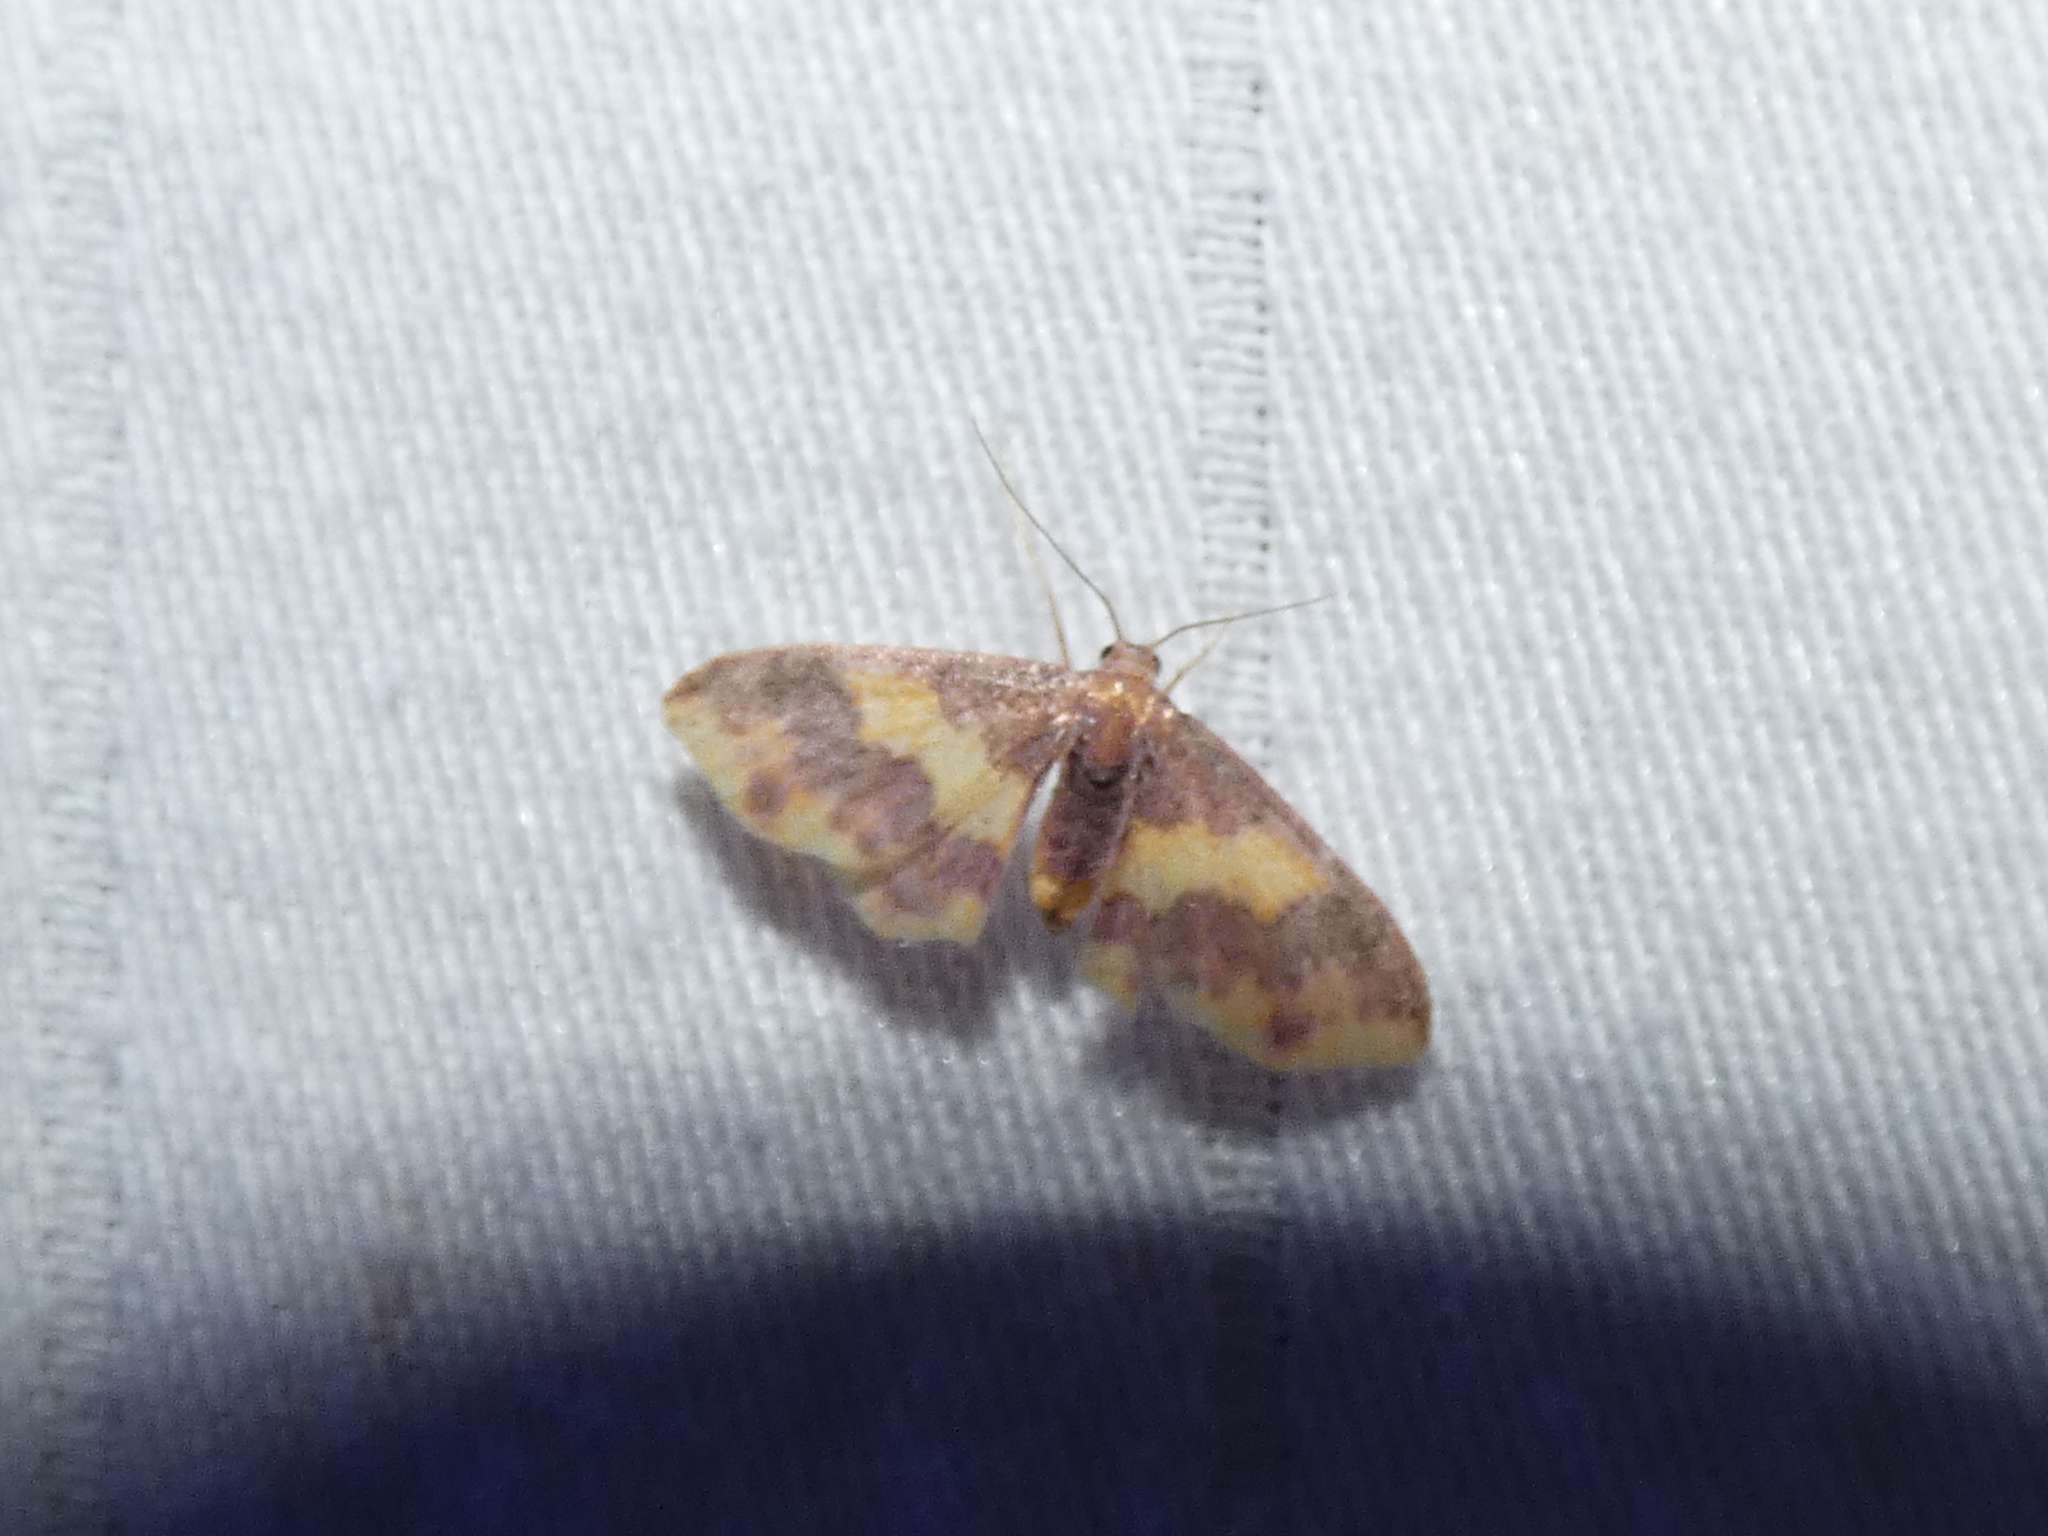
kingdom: Animalia
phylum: Arthropoda
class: Insecta
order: Lepidoptera
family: Geometridae
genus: Lophosis
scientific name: Lophosis labeculata
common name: Stained lophosis moth
